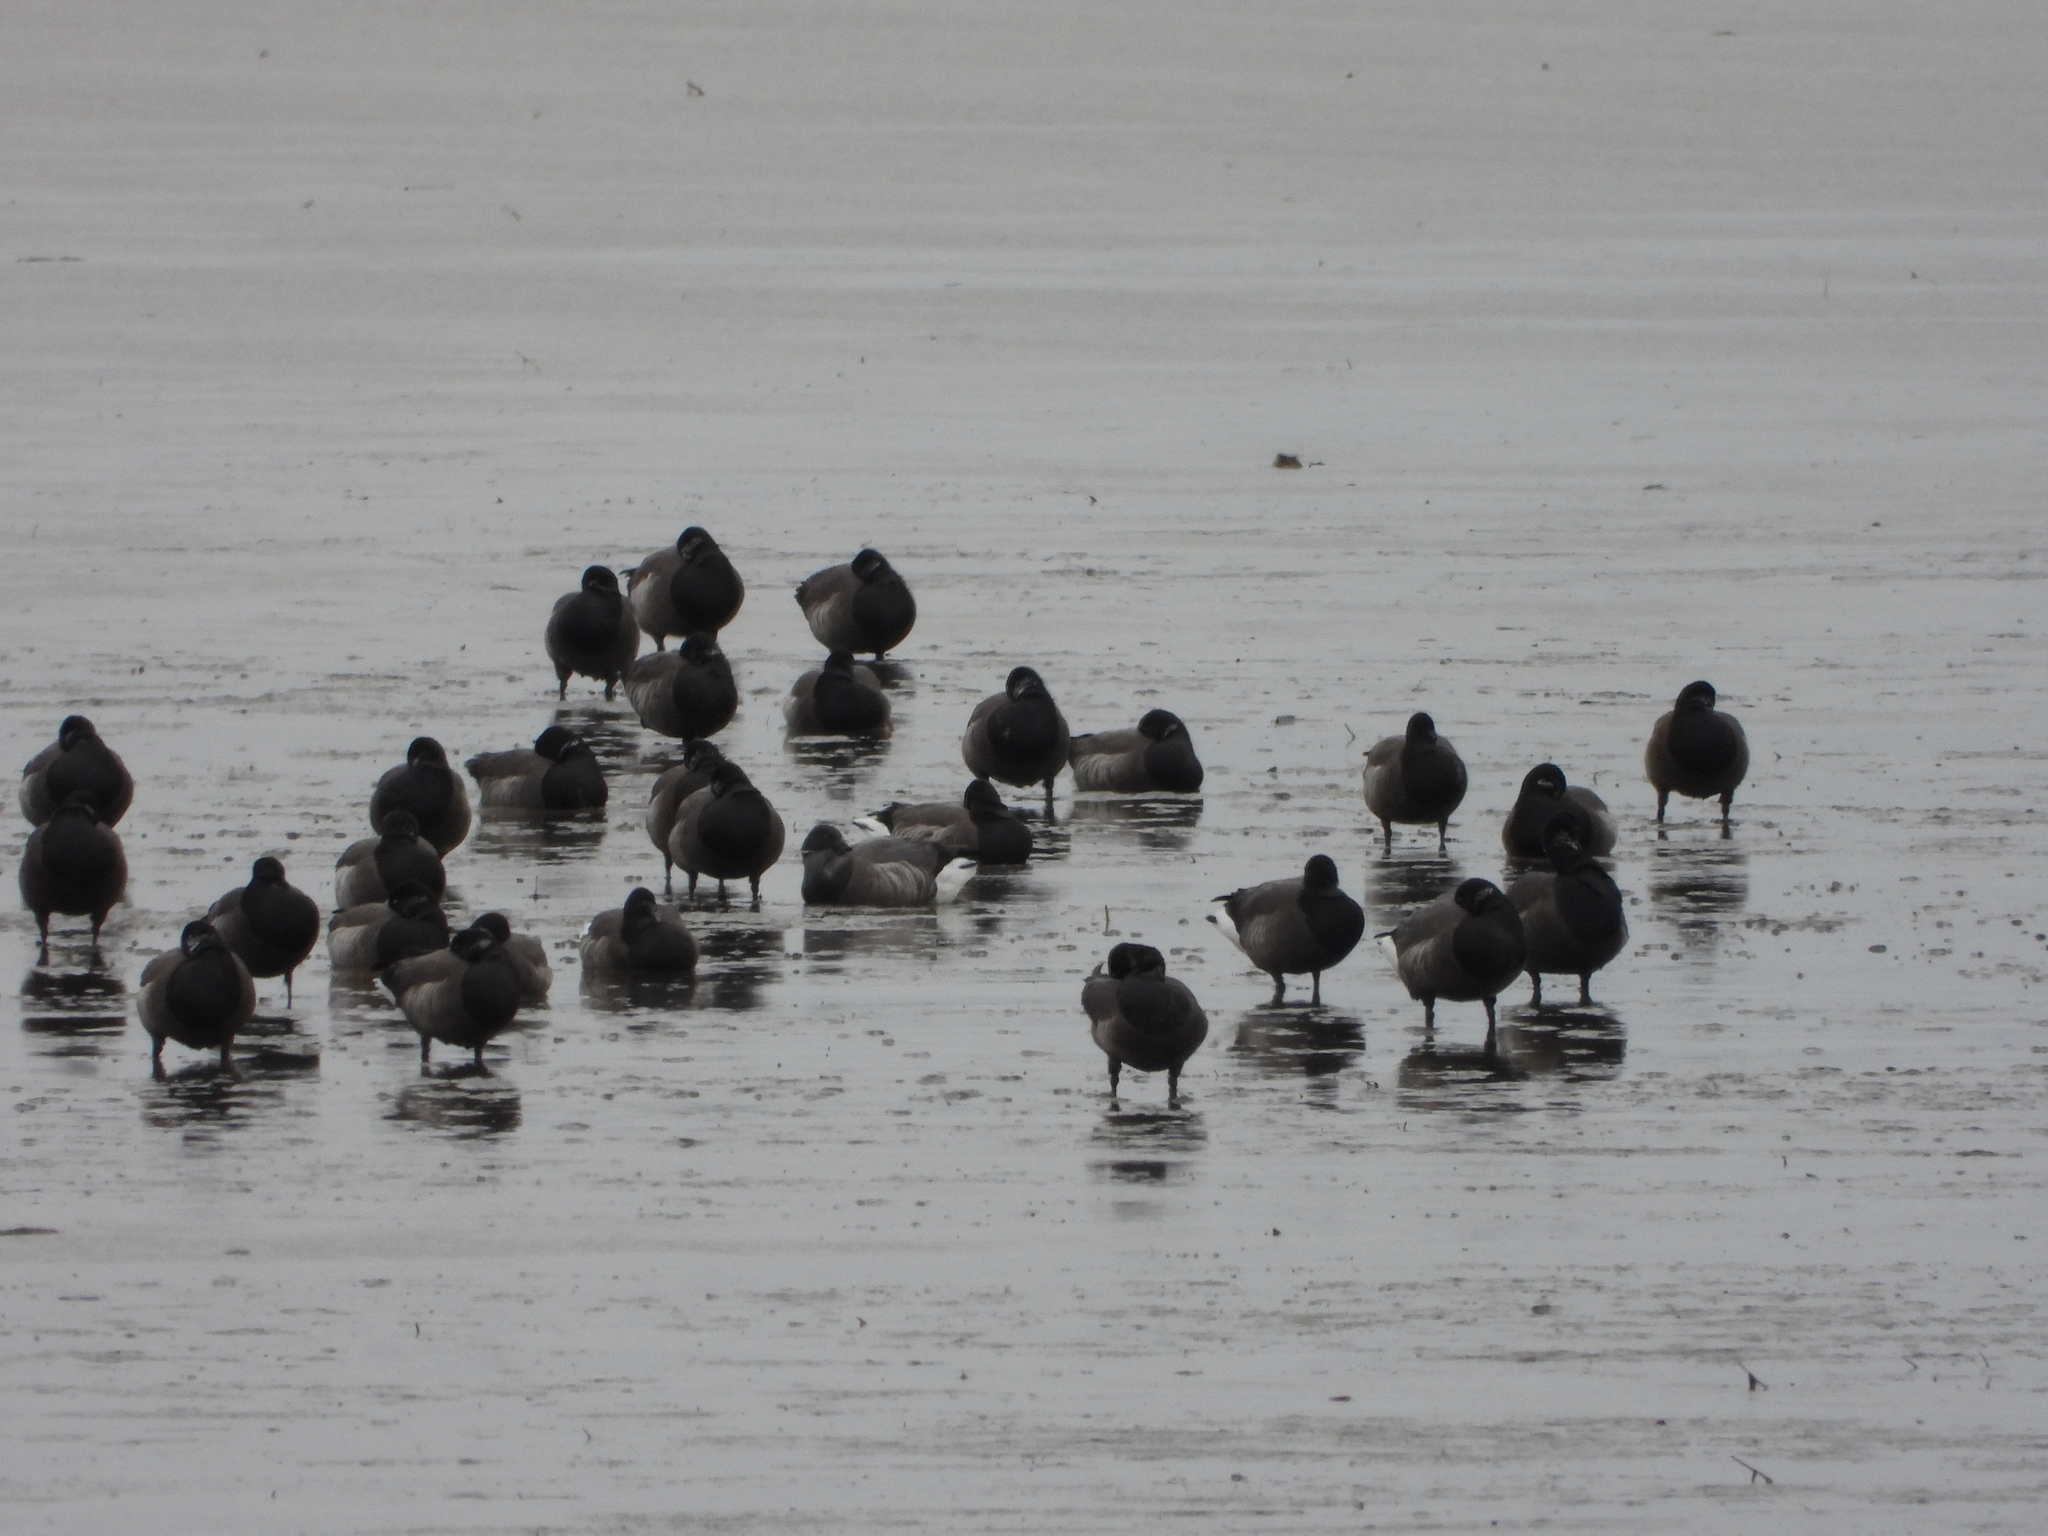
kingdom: Animalia
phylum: Chordata
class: Aves
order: Anseriformes
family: Anatidae
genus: Branta
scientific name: Branta bernicla
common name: Brant goose
